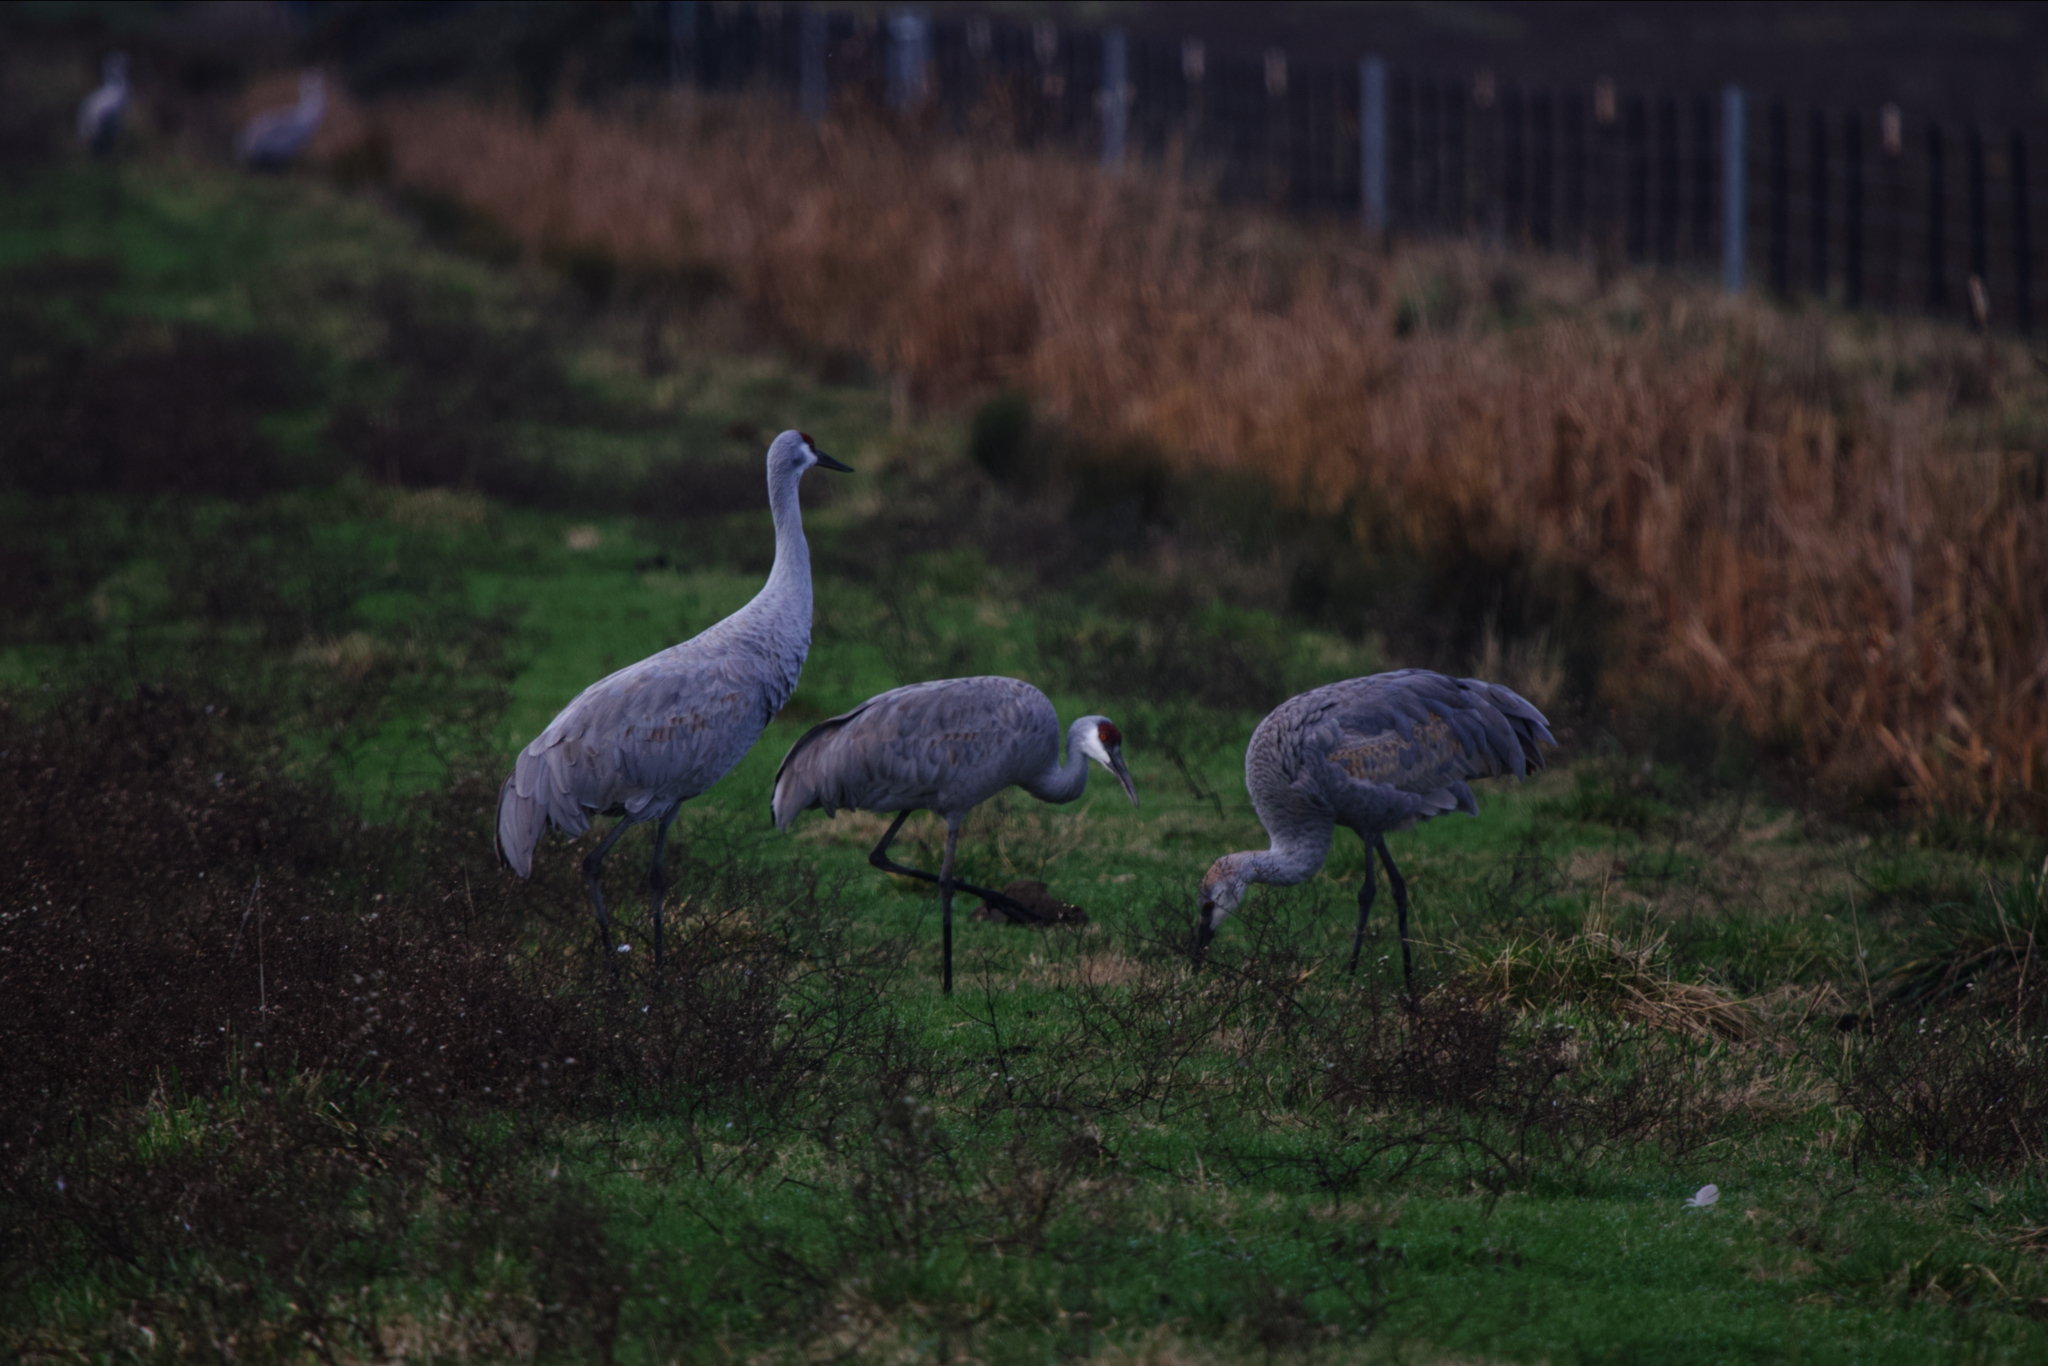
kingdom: Animalia
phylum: Chordata
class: Aves
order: Gruiformes
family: Gruidae
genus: Grus
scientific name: Grus canadensis
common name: Sandhill crane
